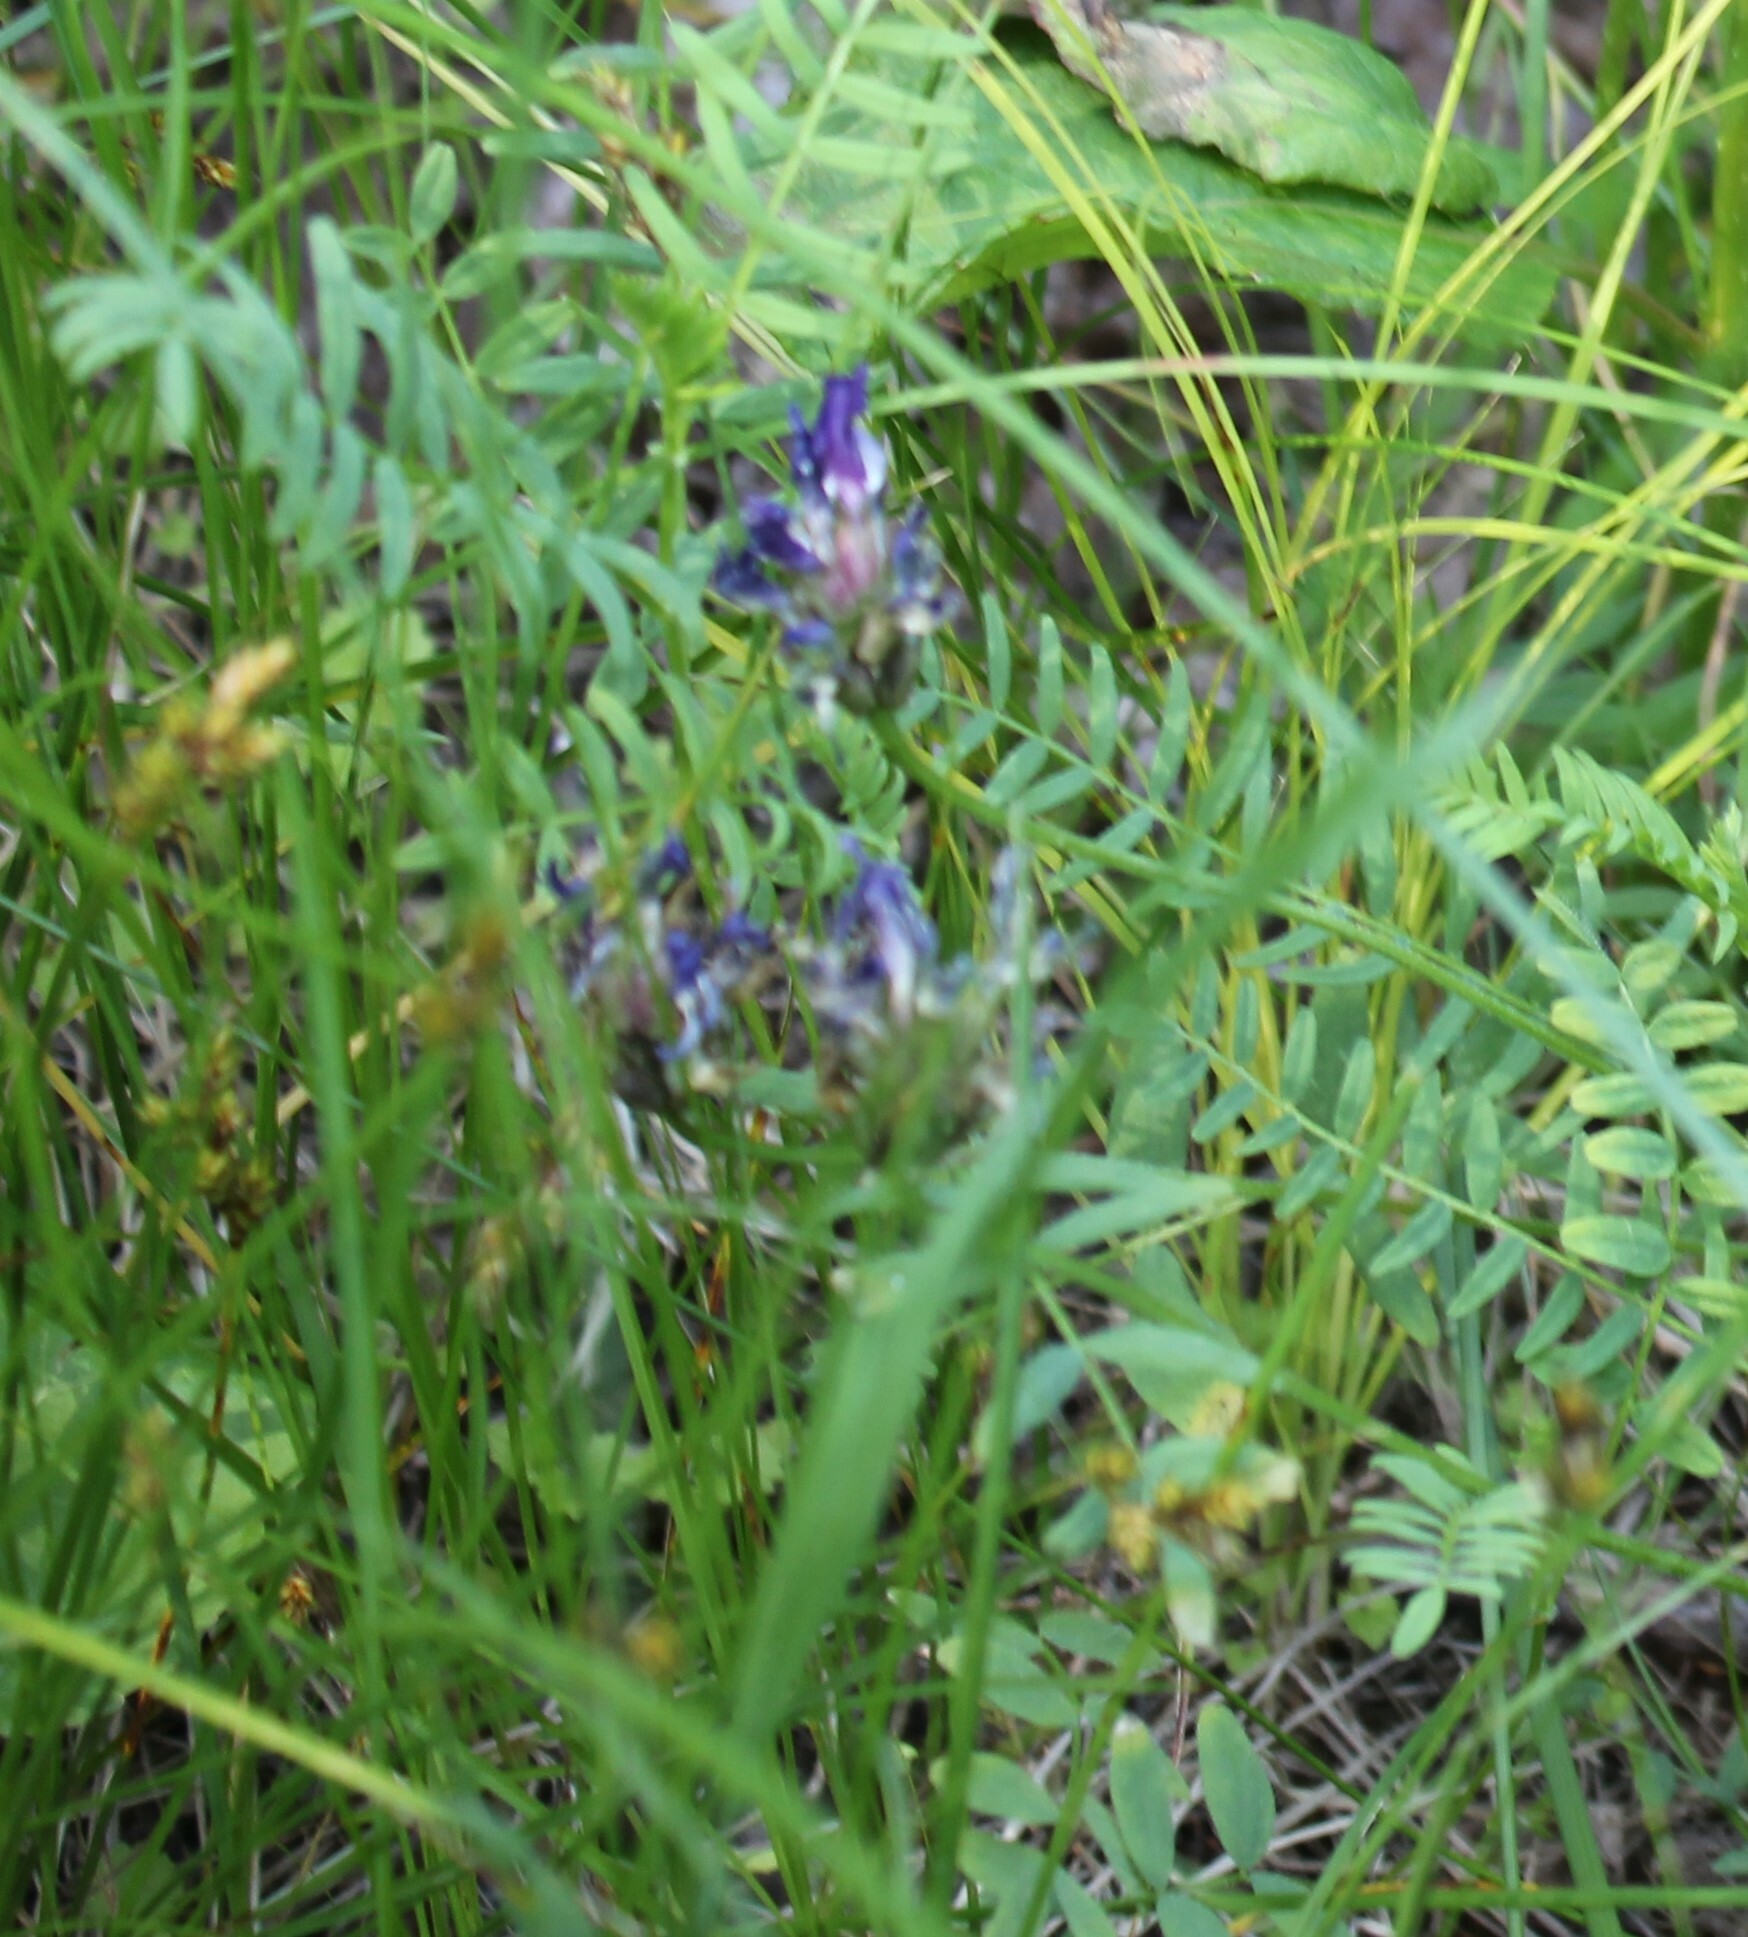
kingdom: Plantae
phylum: Tracheophyta
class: Magnoliopsida
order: Fabales
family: Fabaceae
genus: Astragalus
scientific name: Astragalus danicus
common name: Purple milk-vetch
